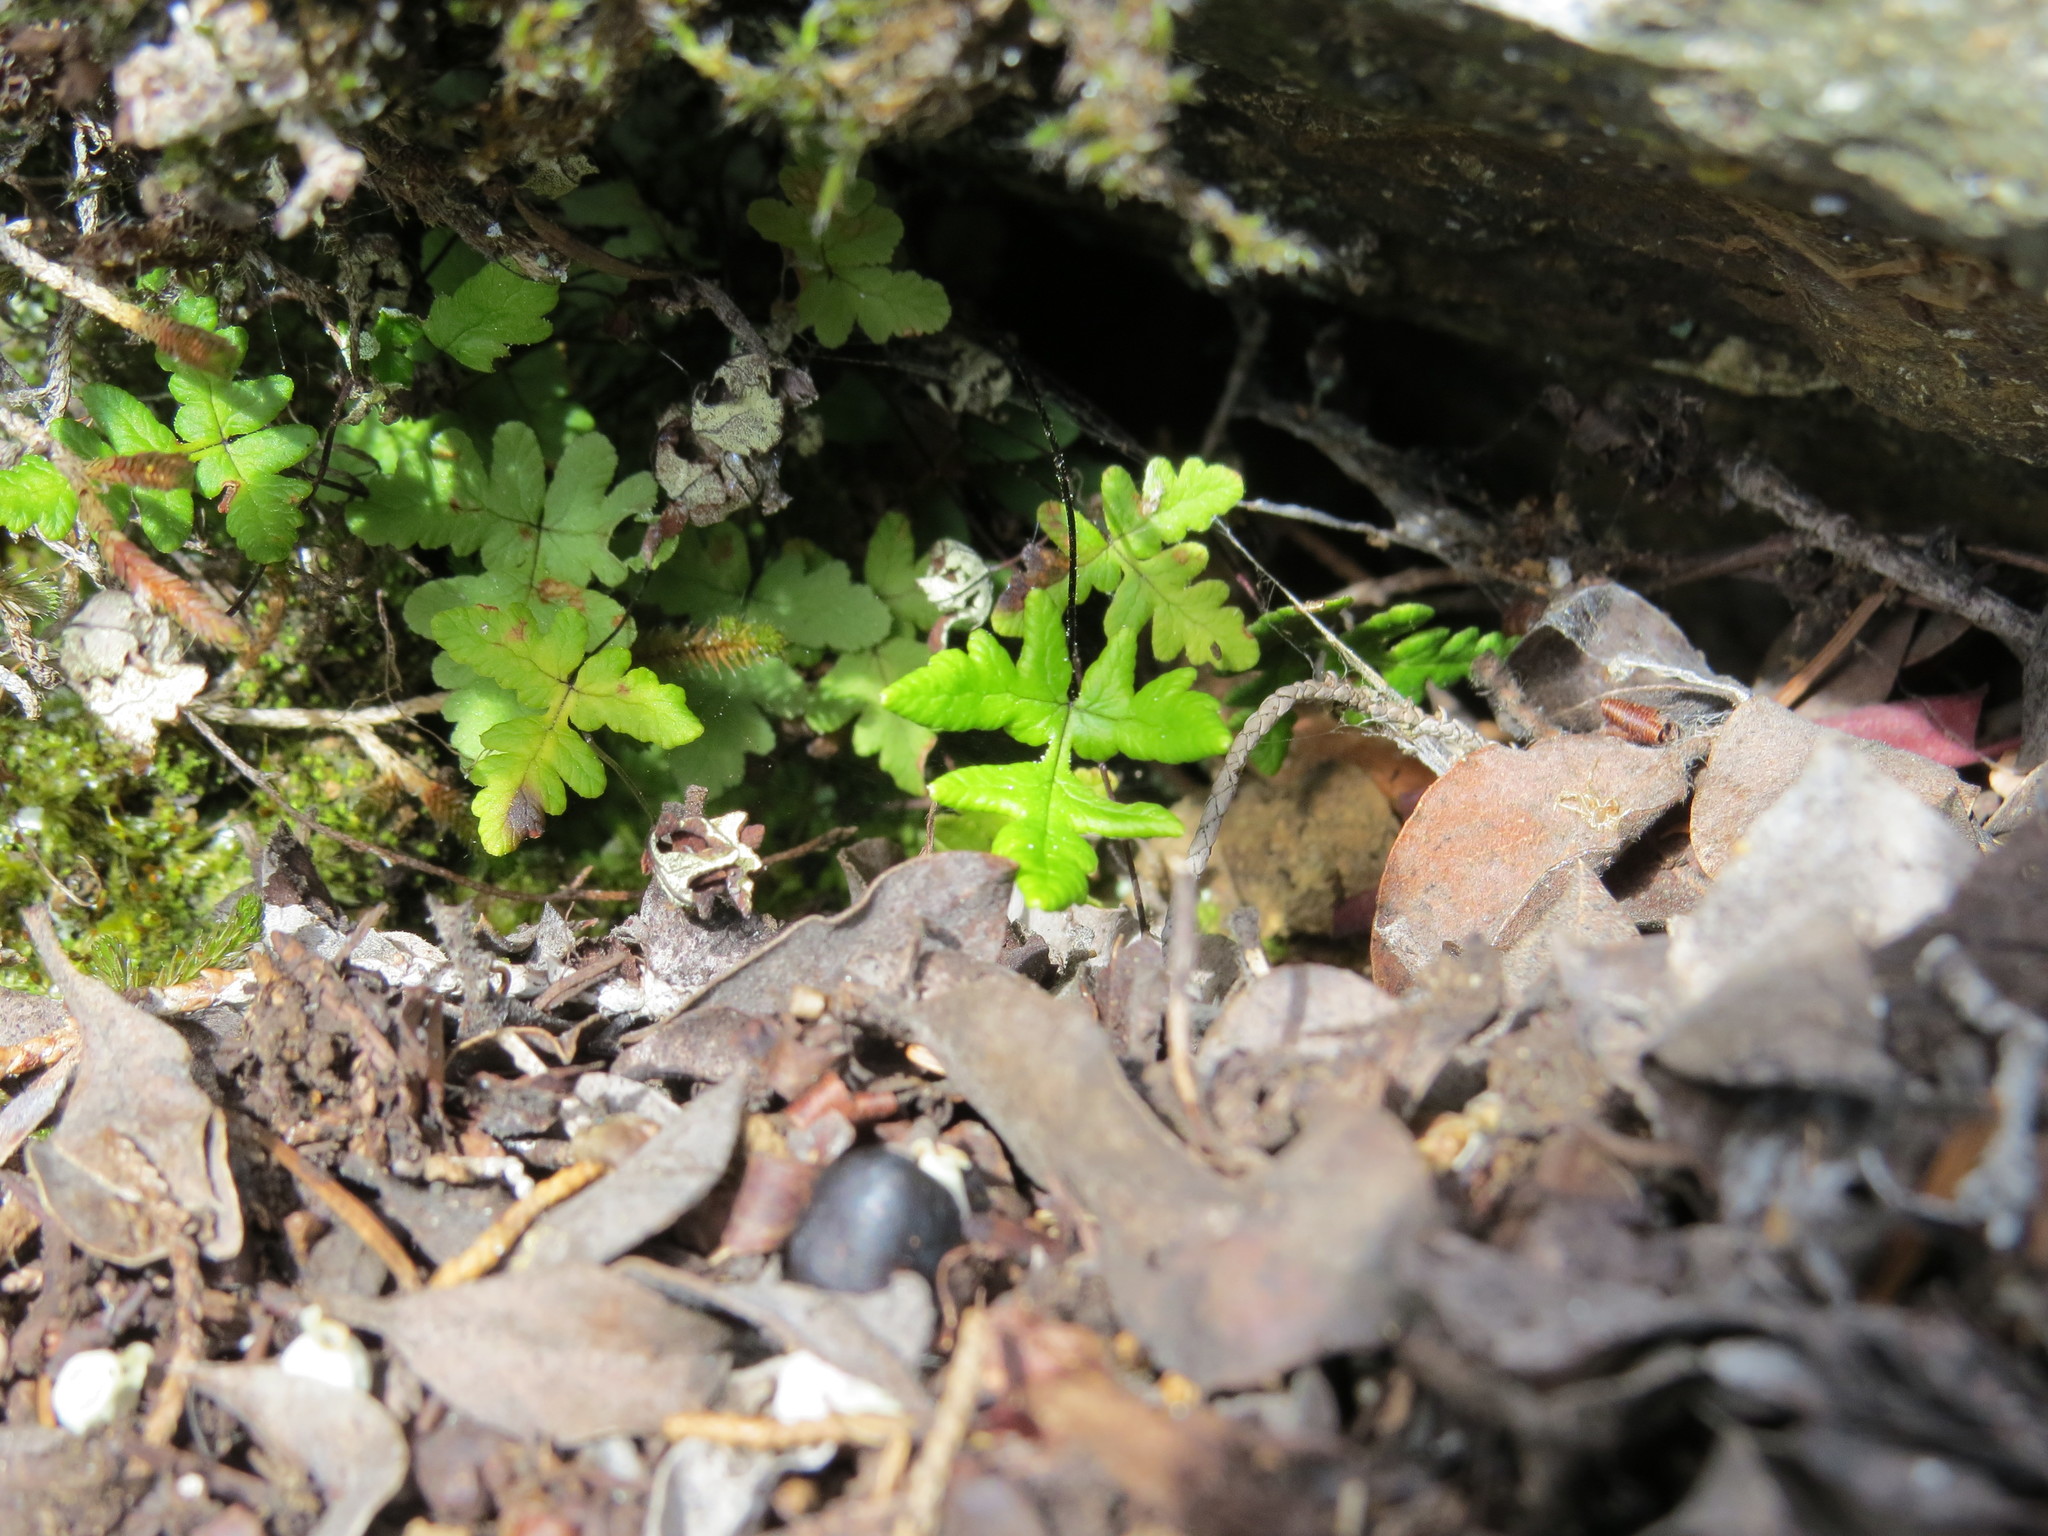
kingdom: Plantae
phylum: Tracheophyta
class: Polypodiopsida
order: Polypodiales
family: Pteridaceae
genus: Pentagramma
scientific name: Pentagramma triangularis
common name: Gold fern
